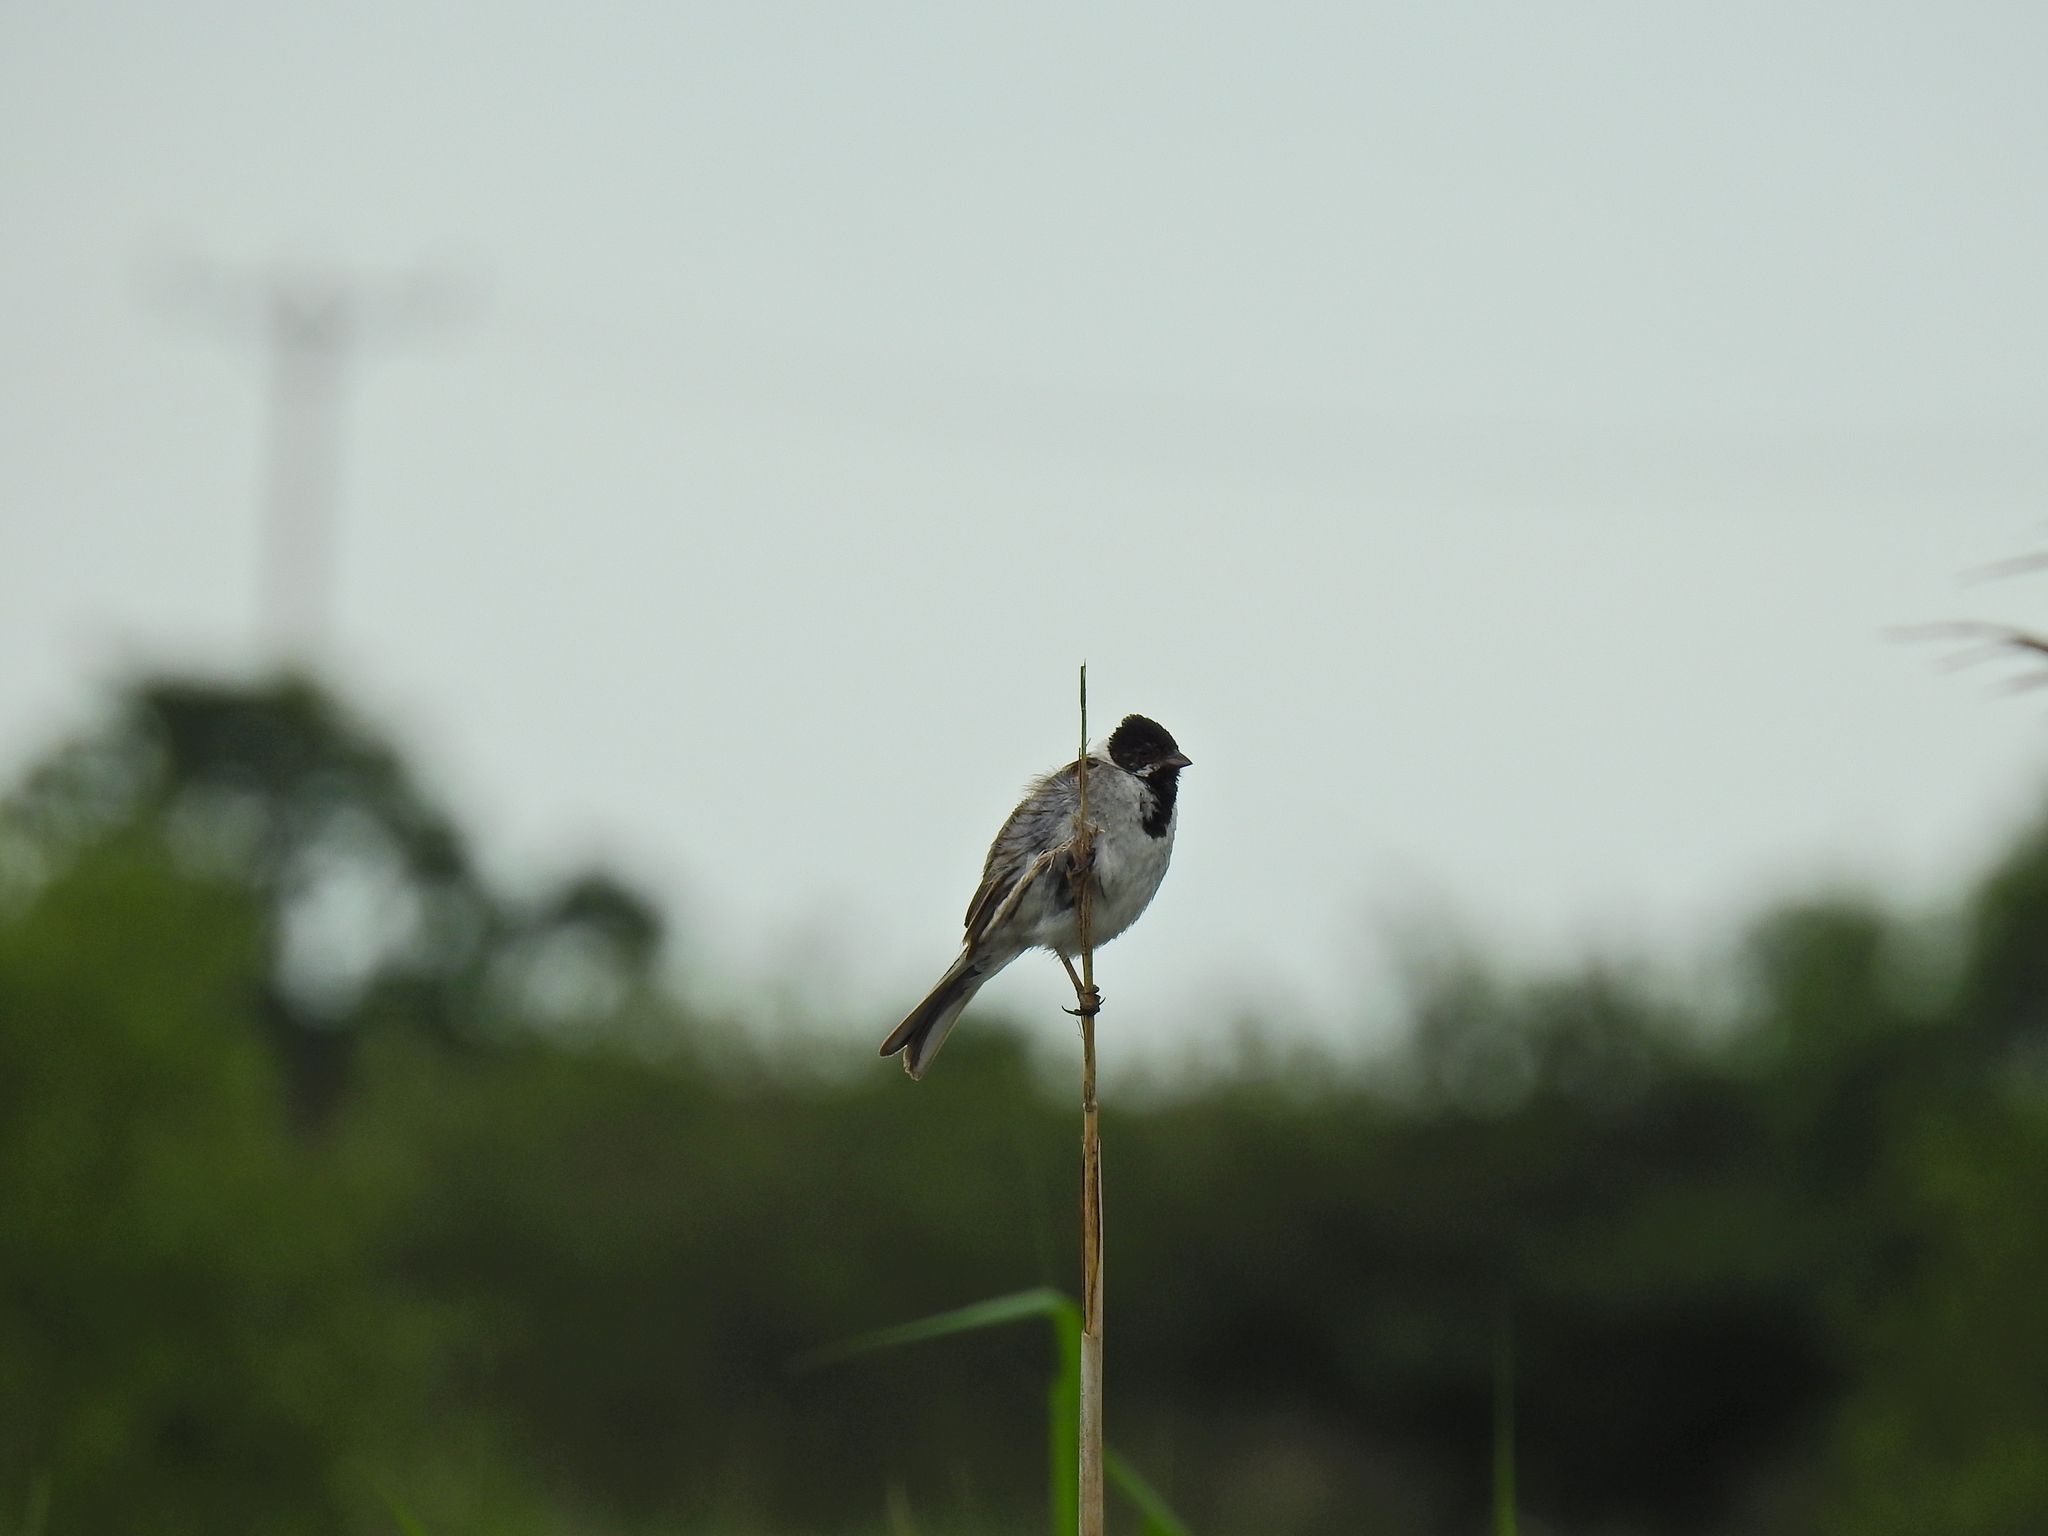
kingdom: Animalia
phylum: Chordata
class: Aves
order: Passeriformes
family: Emberizidae
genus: Emberiza
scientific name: Emberiza schoeniclus
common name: Reed bunting
